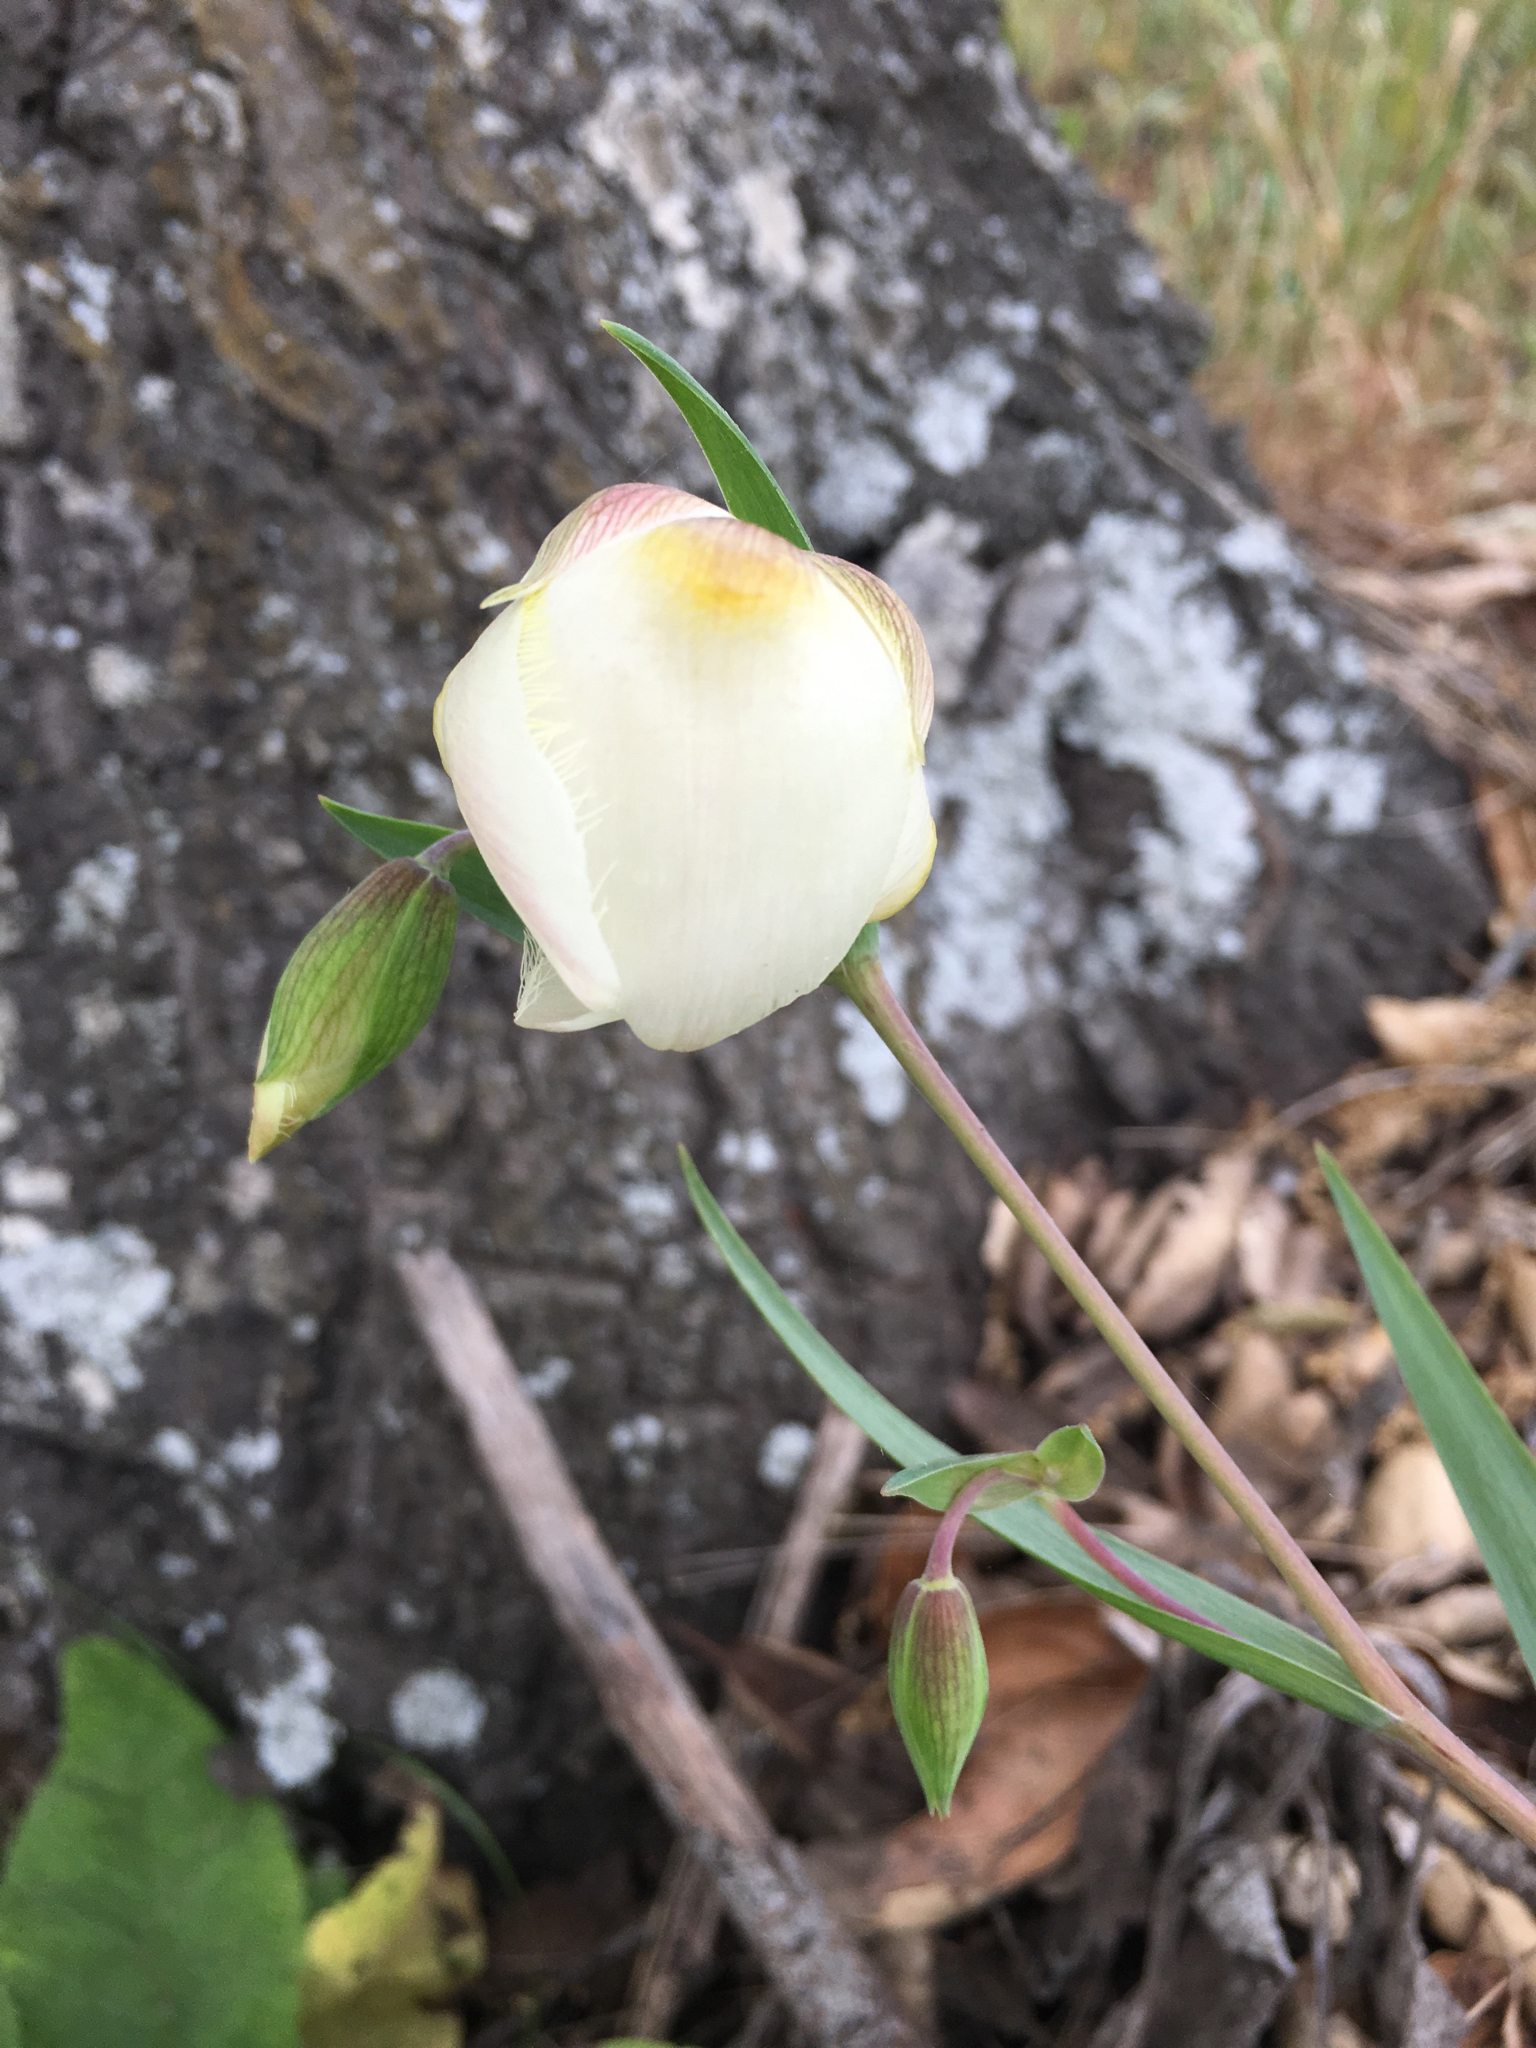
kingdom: Plantae
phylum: Tracheophyta
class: Liliopsida
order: Liliales
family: Liliaceae
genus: Calochortus
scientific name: Calochortus albus
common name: Fairy-lantern
